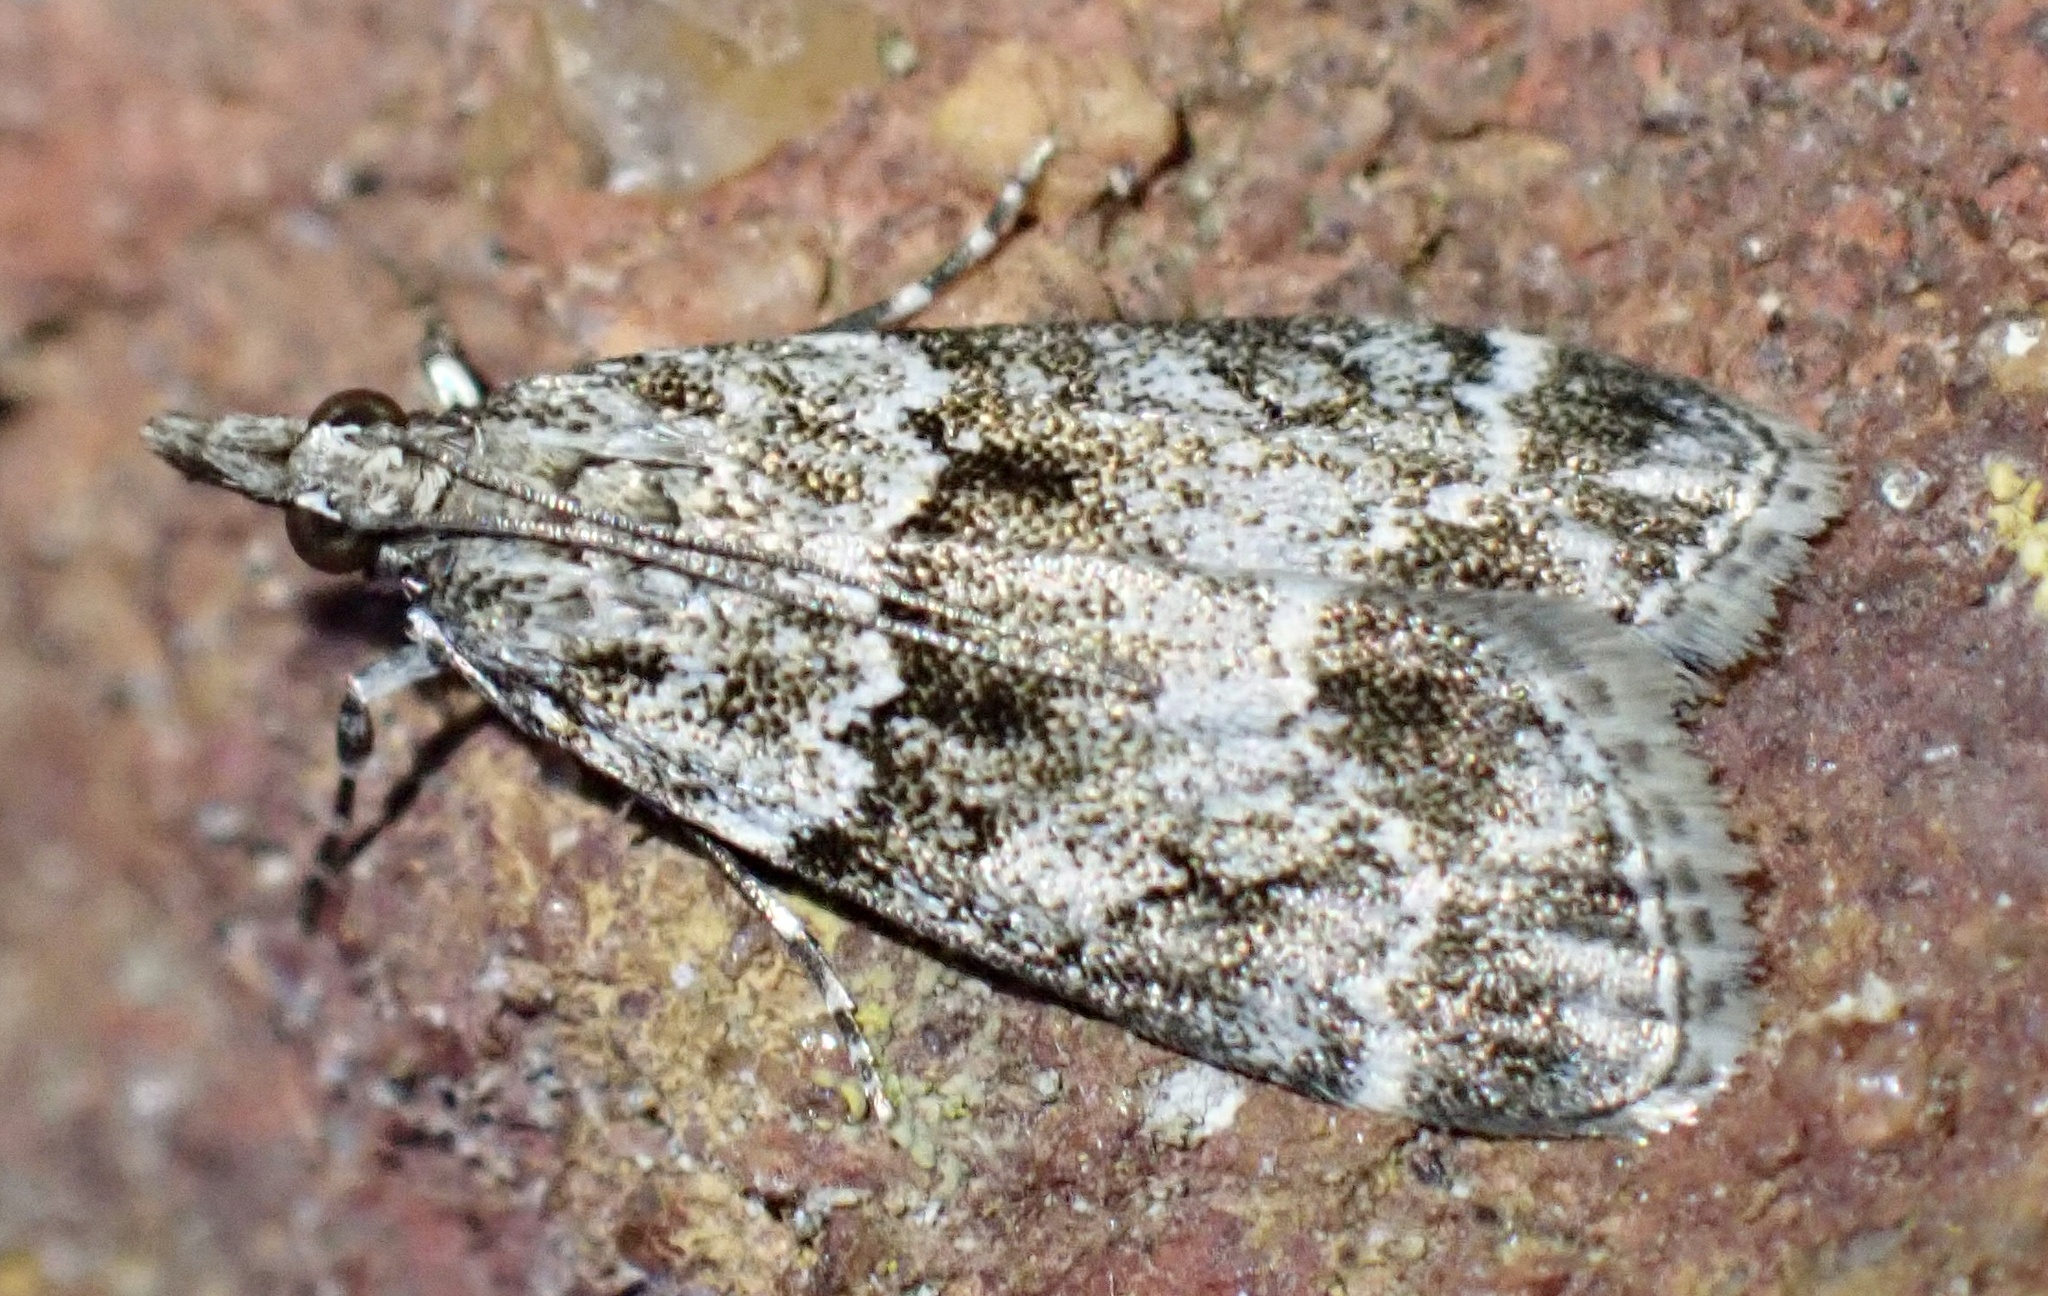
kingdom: Animalia
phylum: Arthropoda
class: Insecta
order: Lepidoptera
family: Crambidae
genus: Eudonia
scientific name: Eudonia mercurella
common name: Small grey
